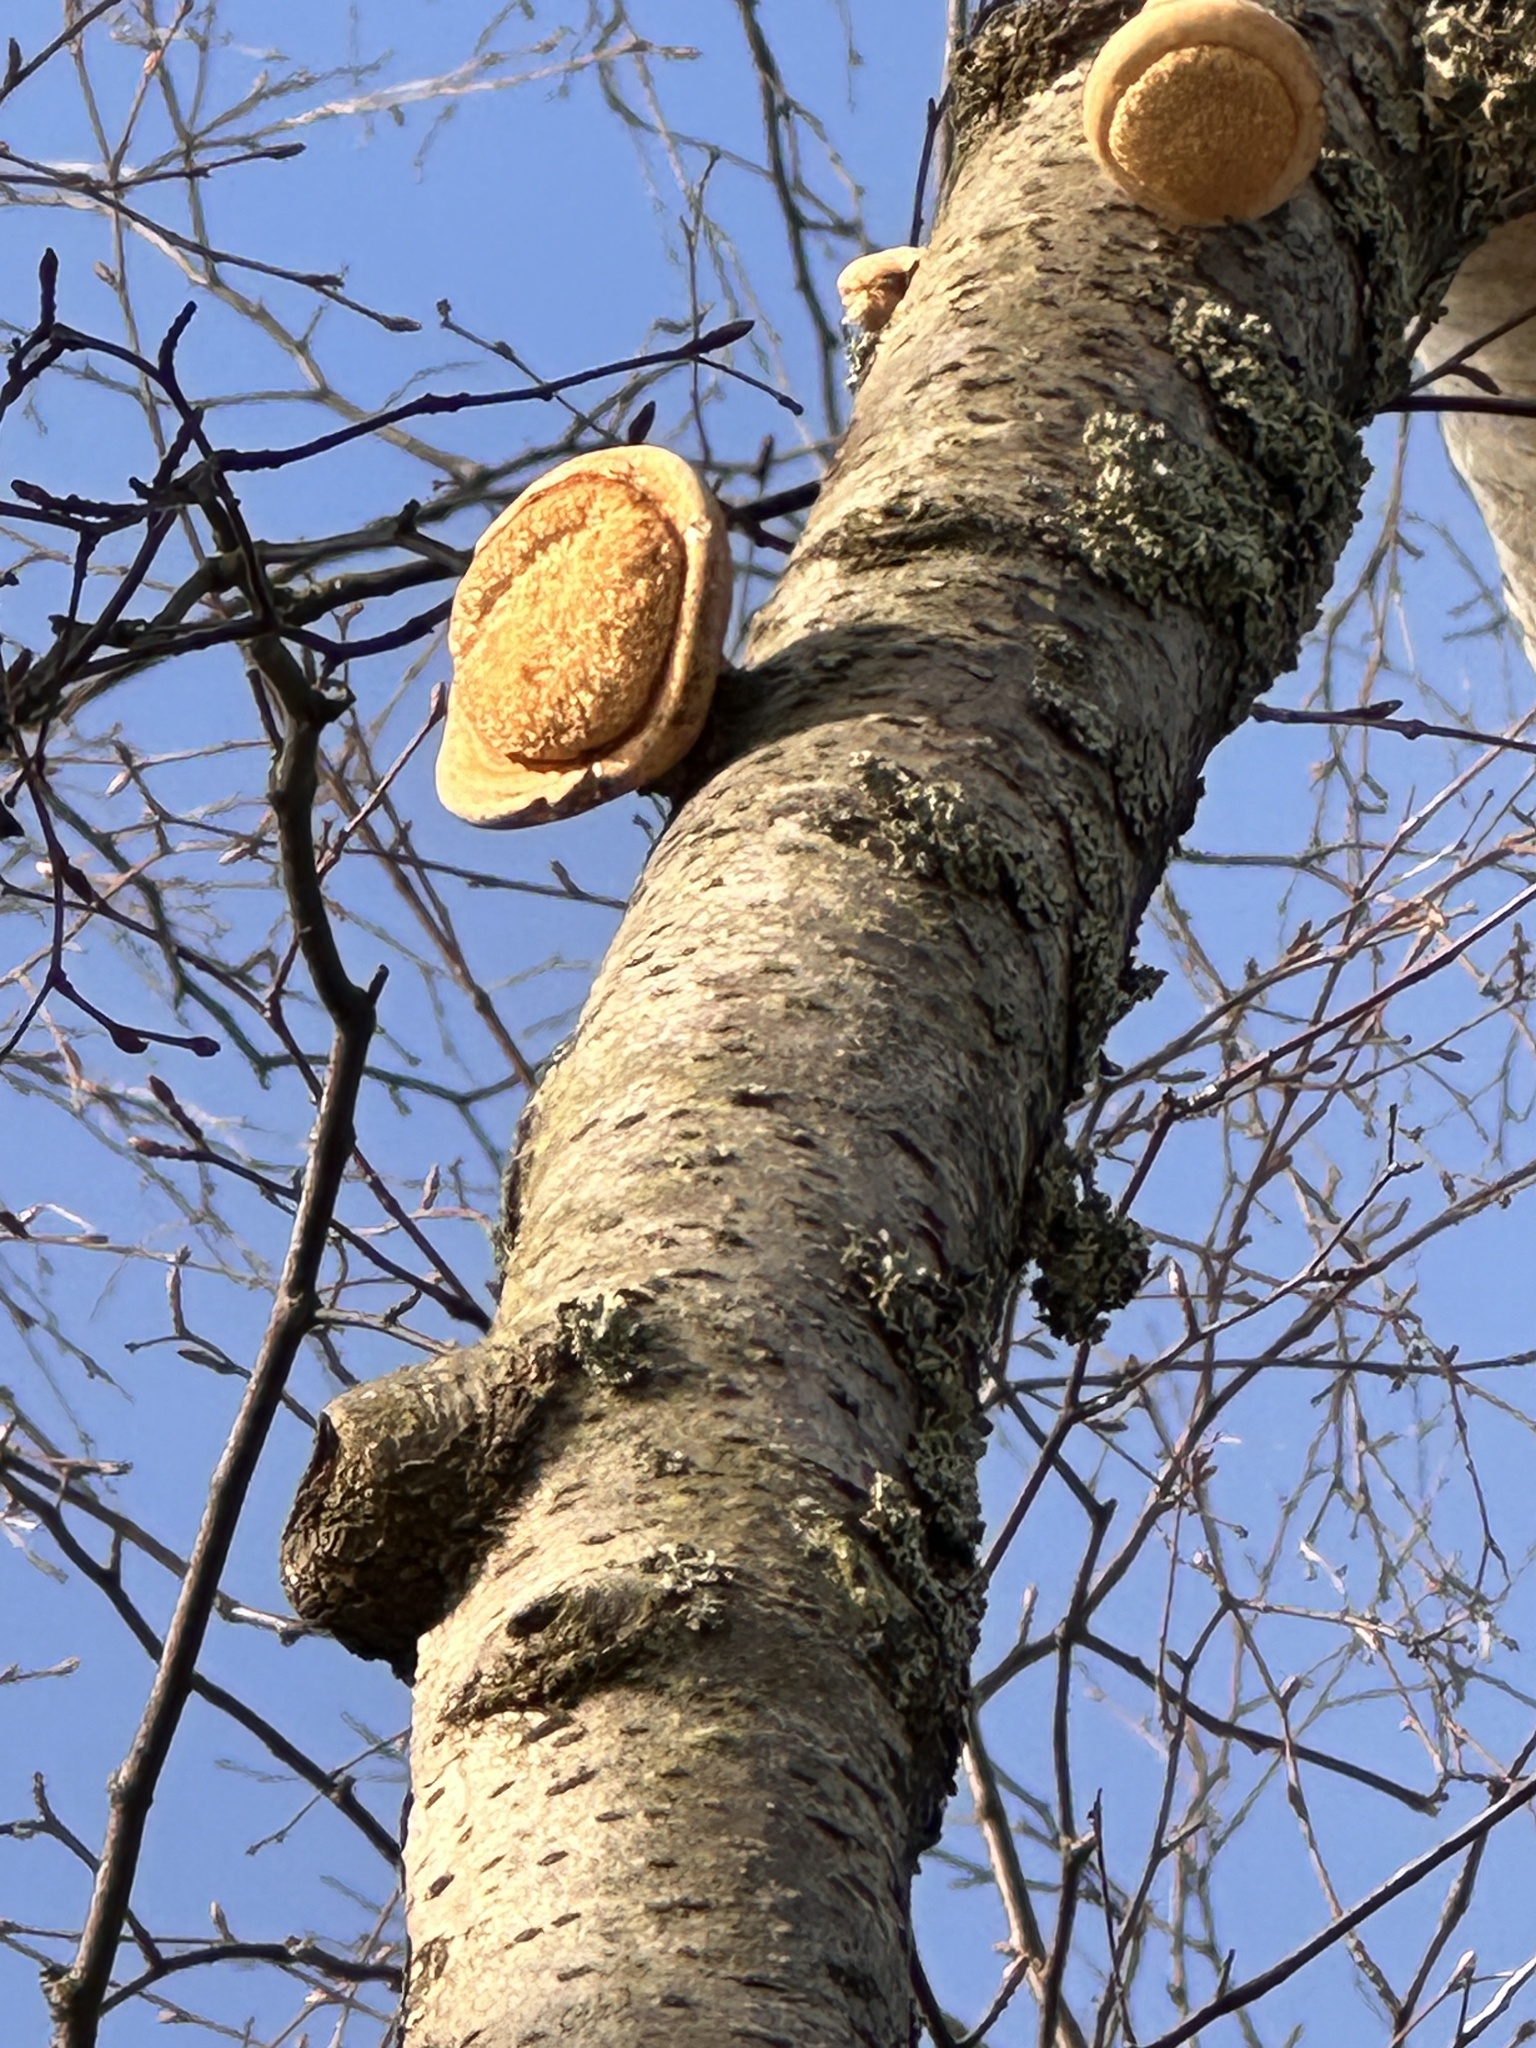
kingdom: Fungi
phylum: Basidiomycota
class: Agaricomycetes
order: Polyporales
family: Fomitopsidaceae
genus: Fomitopsis
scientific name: Fomitopsis betulina
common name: Birch polypore
